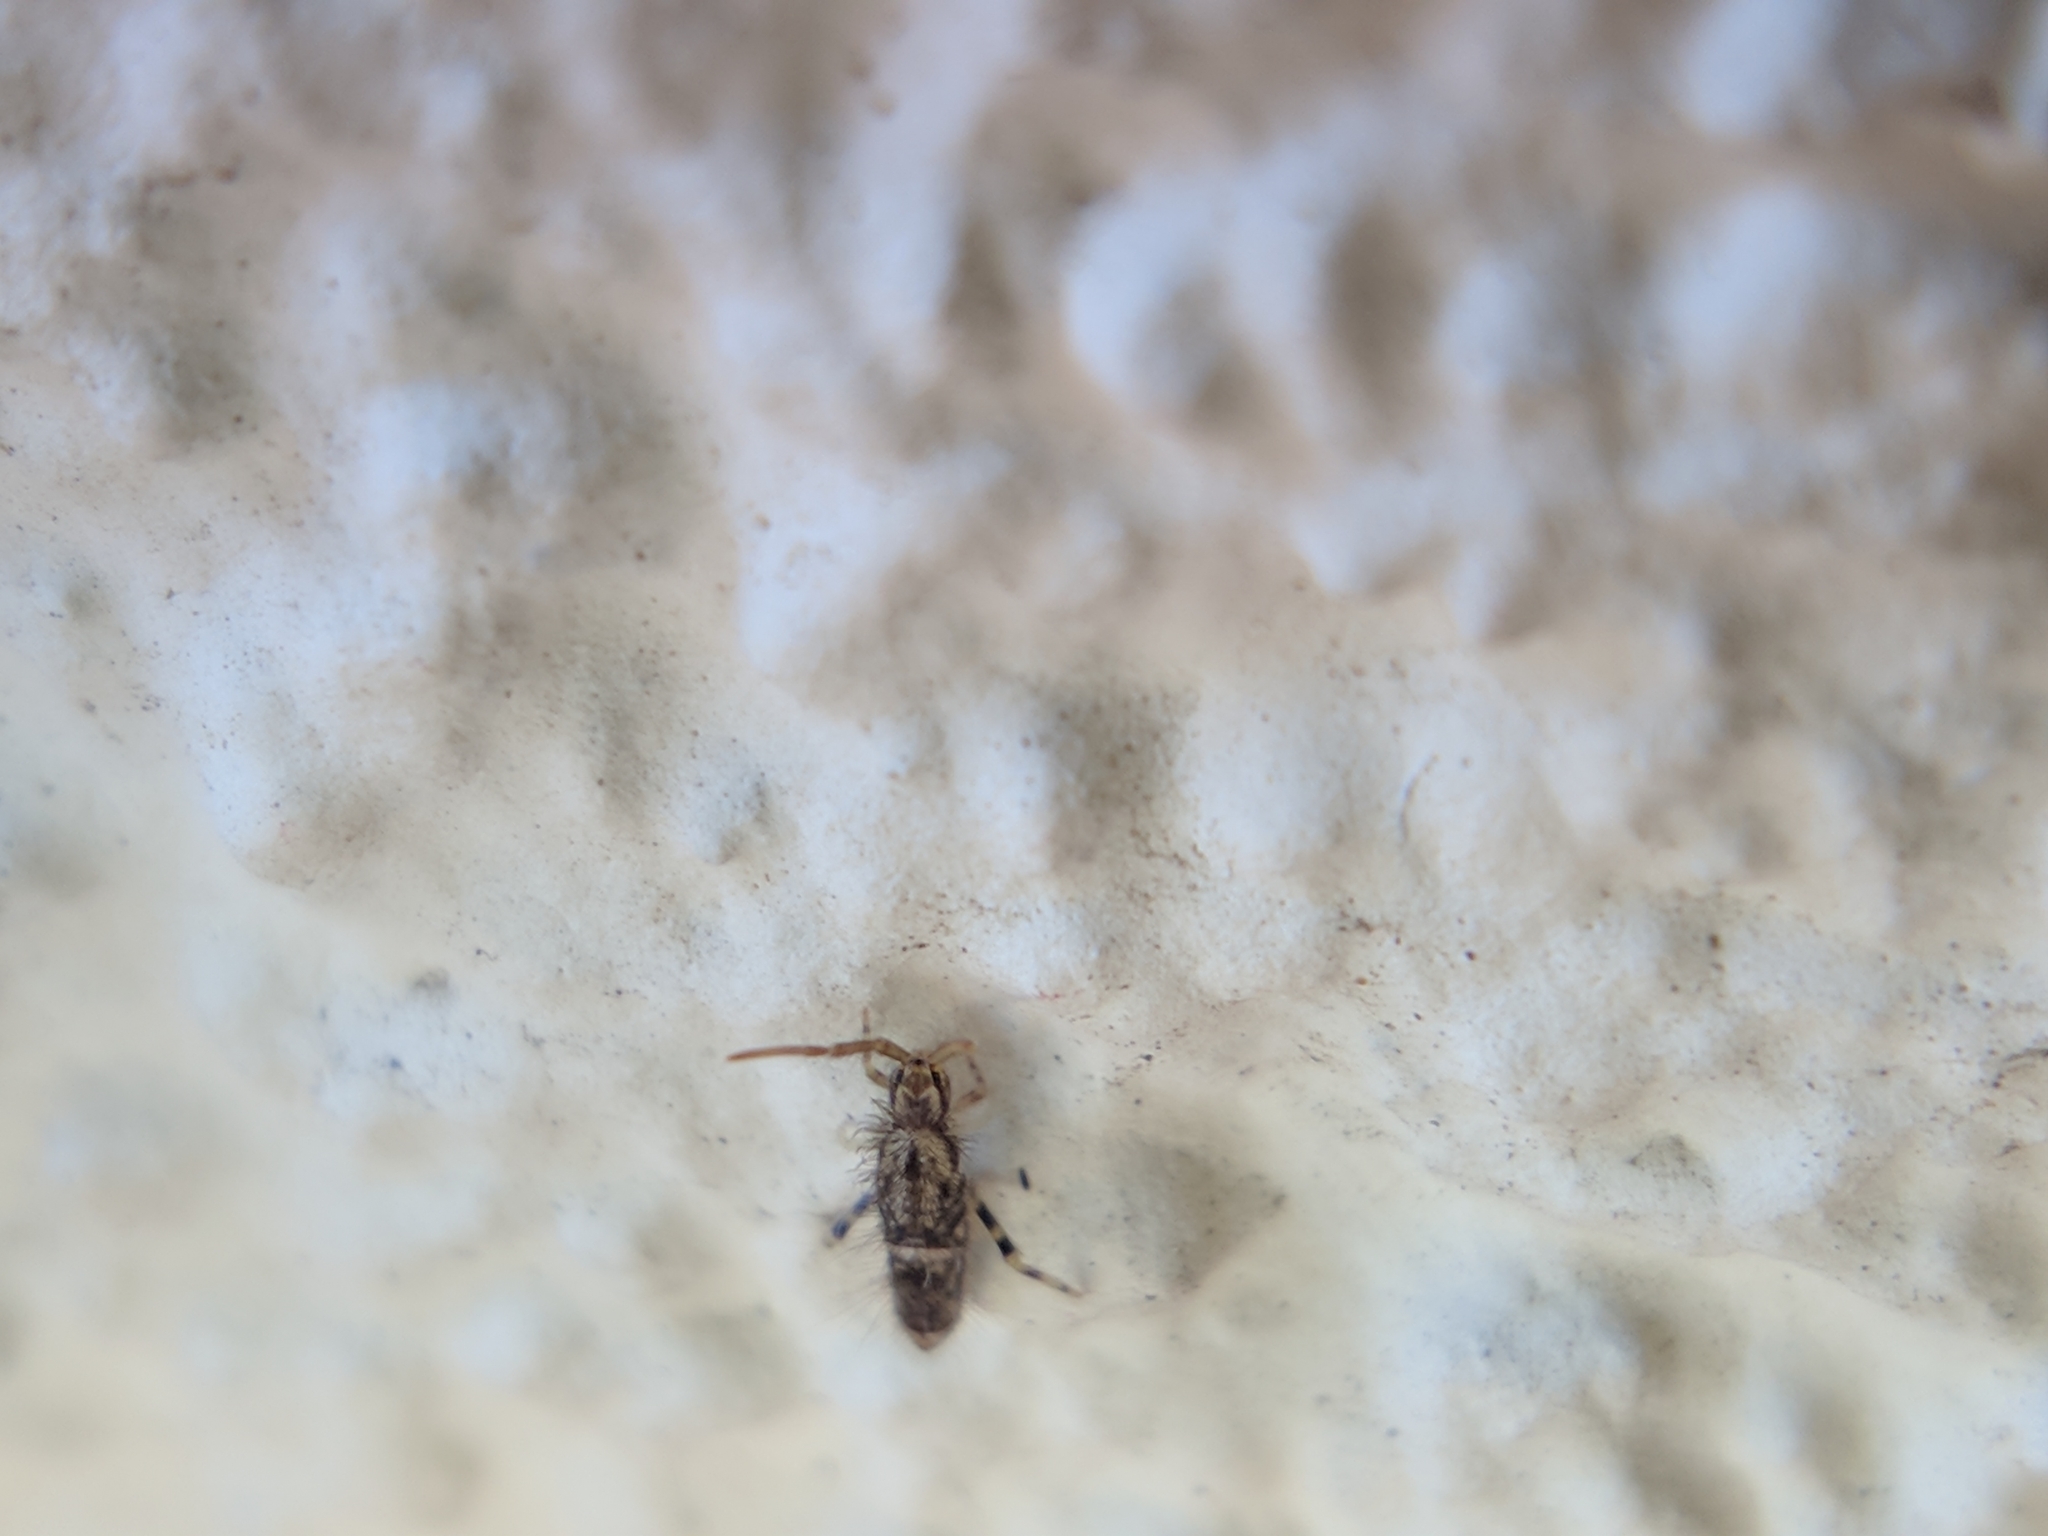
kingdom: Animalia
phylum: Arthropoda
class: Collembola
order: Entomobryomorpha
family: Entomobryidae
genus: Entomobrya
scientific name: Entomobrya dorsalis
